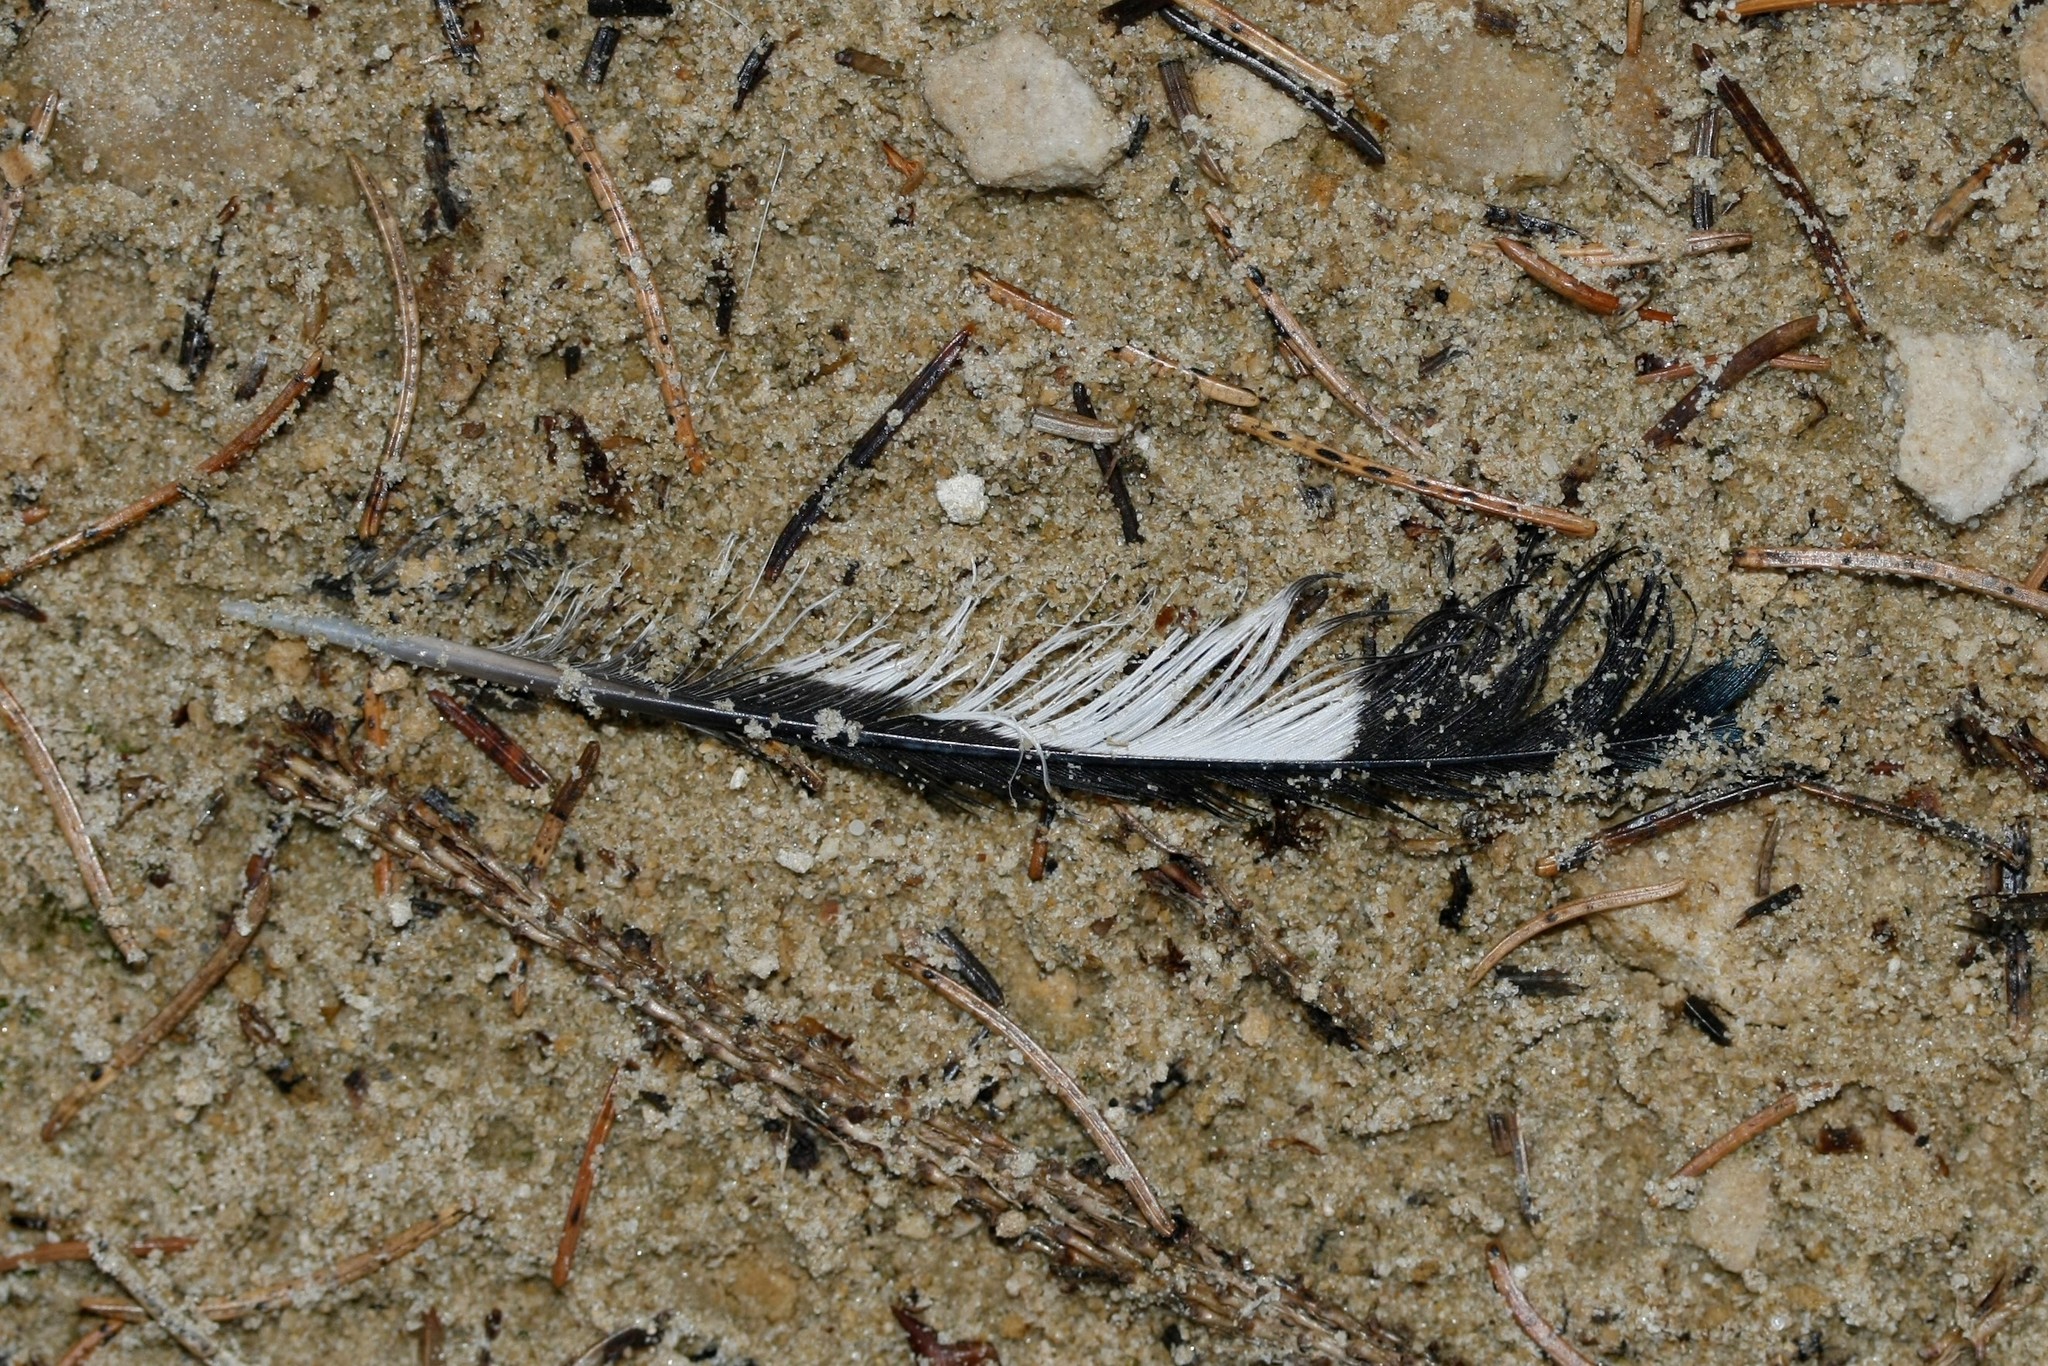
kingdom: Animalia
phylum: Chordata
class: Aves
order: Passeriformes
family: Fringillidae
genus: Coccothraustes
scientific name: Coccothraustes coccothraustes
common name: Hawfinch
